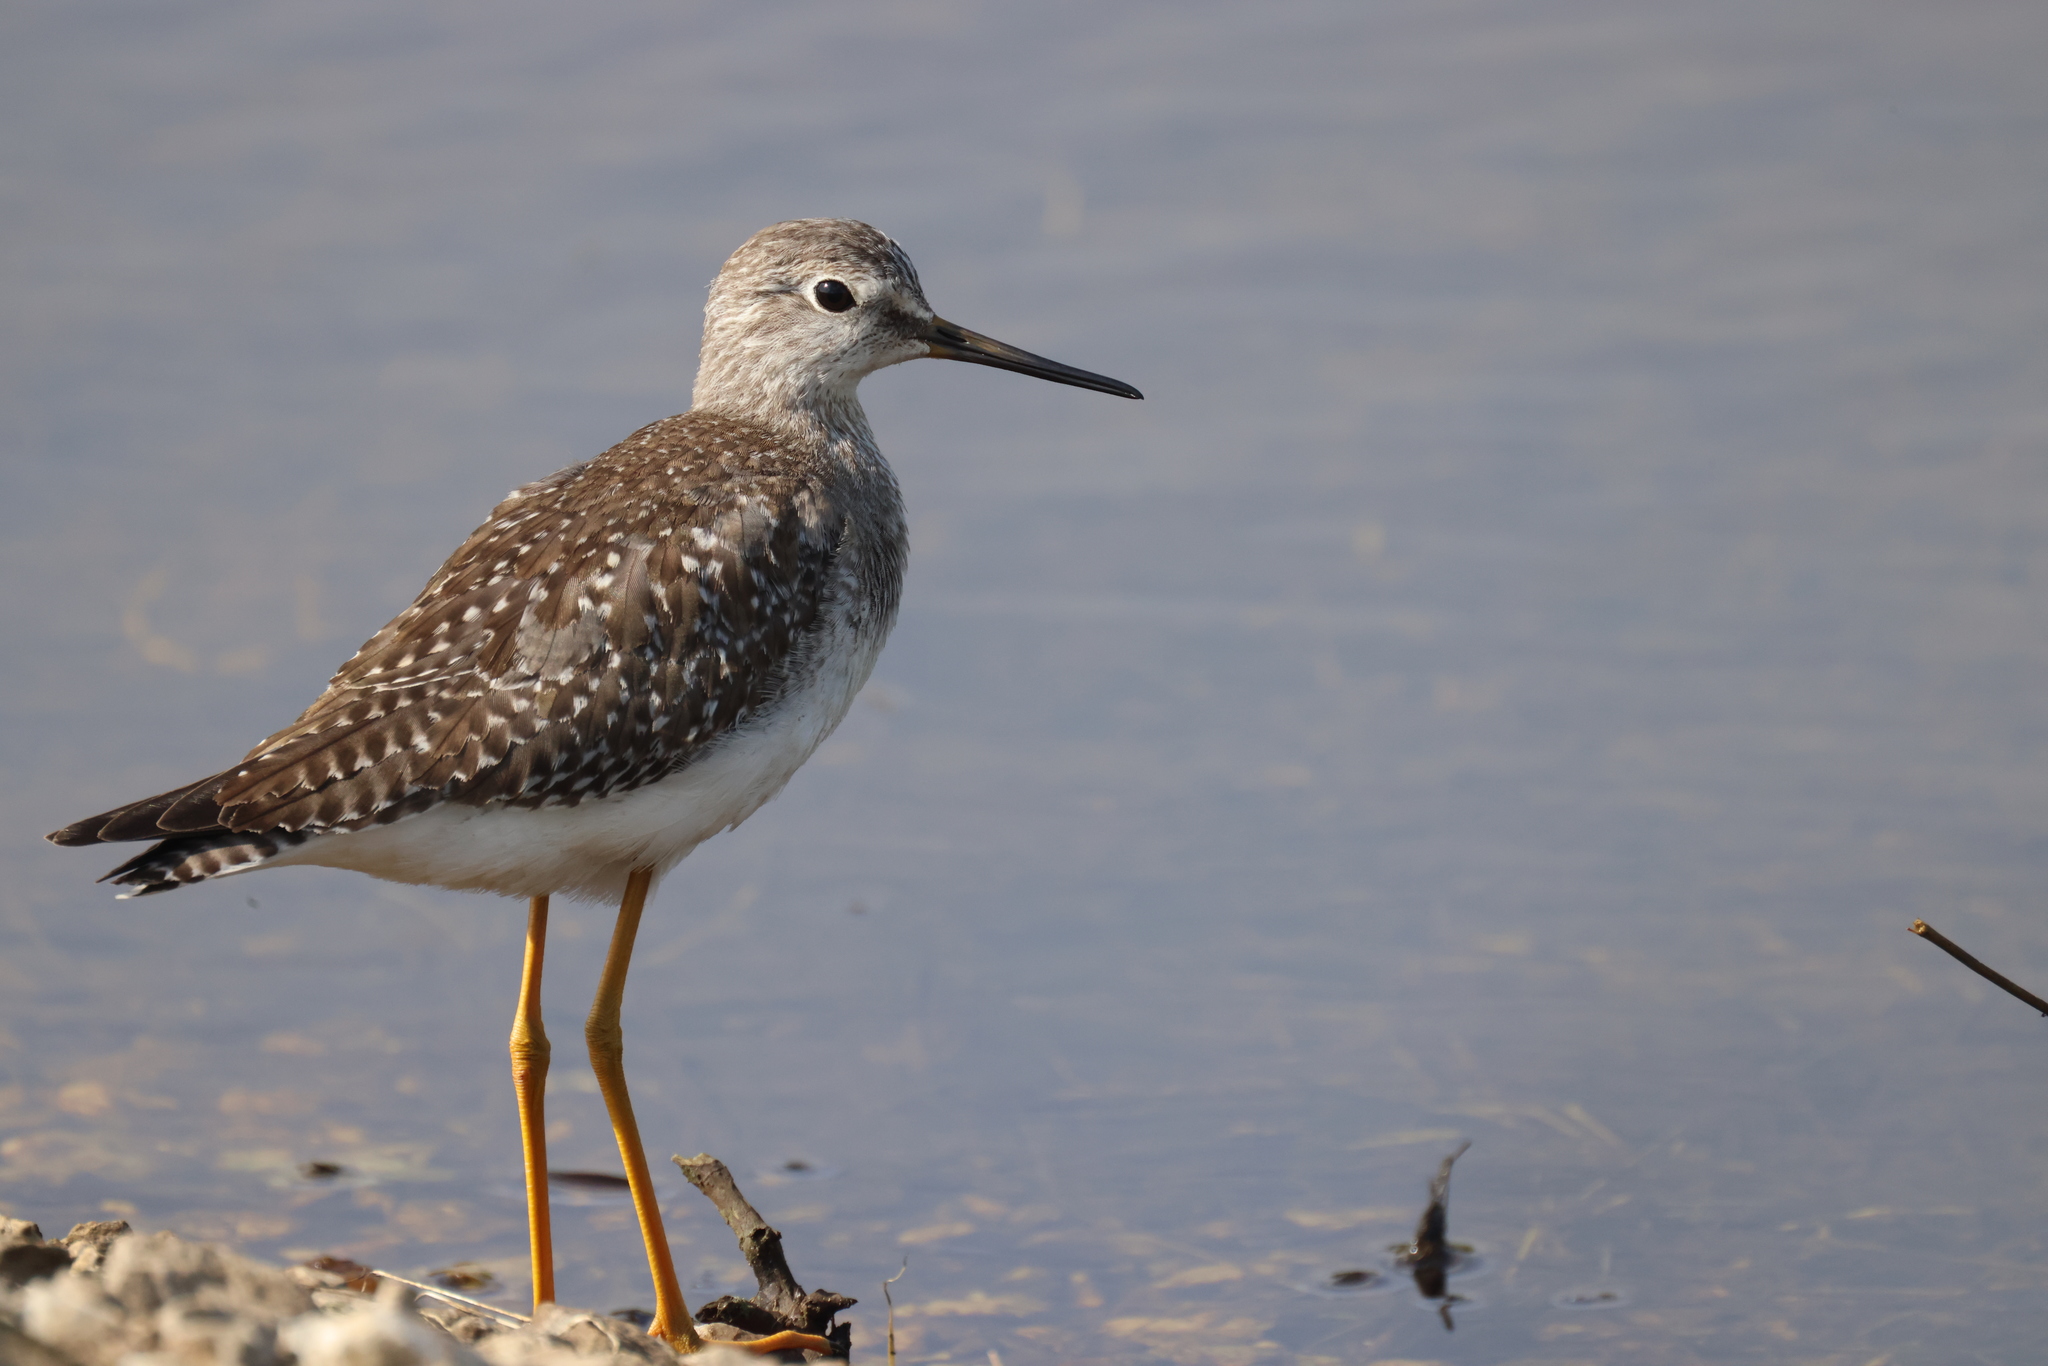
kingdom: Animalia
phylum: Chordata
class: Aves
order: Charadriiformes
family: Scolopacidae
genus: Tringa
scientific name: Tringa flavipes
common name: Lesser yellowlegs
